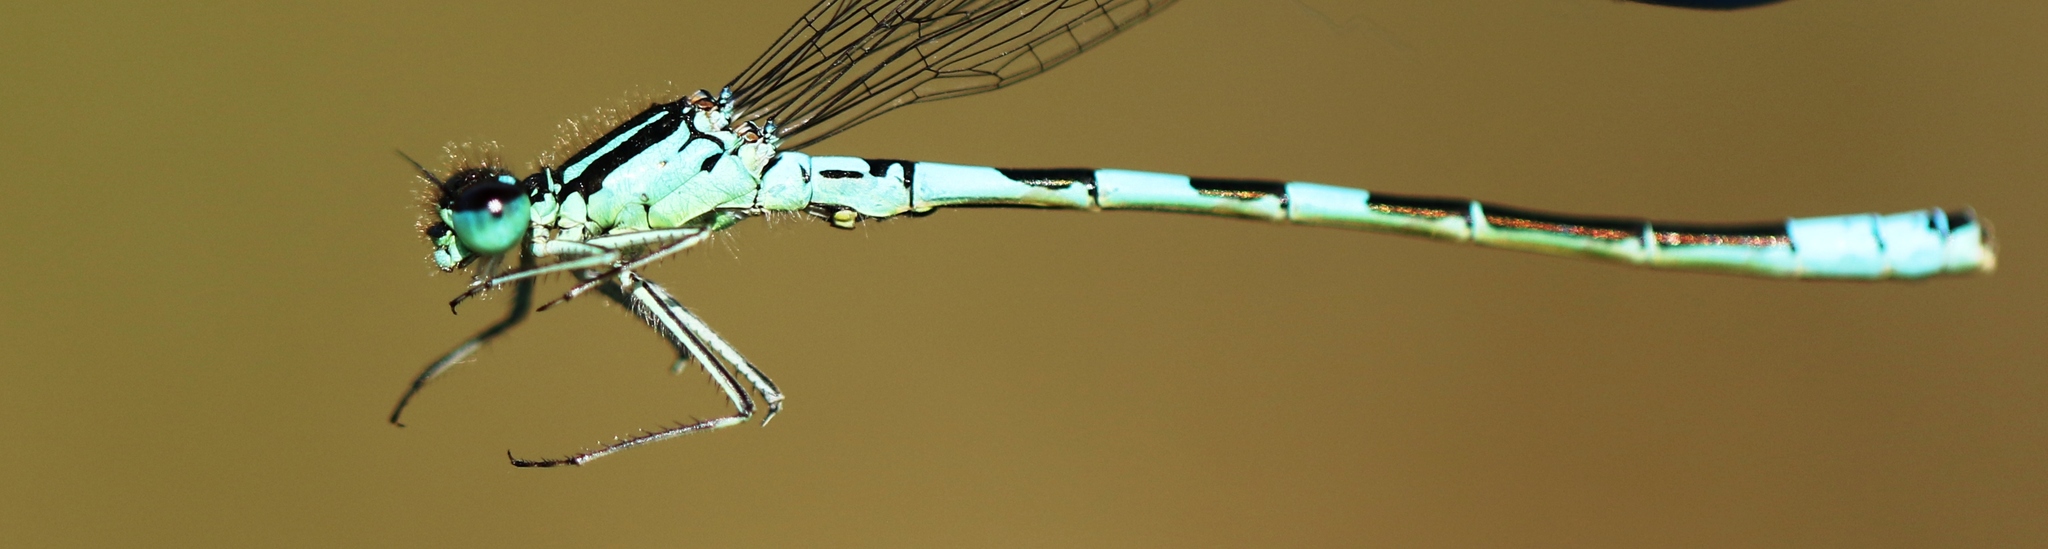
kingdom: Animalia
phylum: Arthropoda
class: Insecta
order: Odonata
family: Coenagrionidae
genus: Coenagrion
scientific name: Coenagrion resolutum
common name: Taiga bluet
